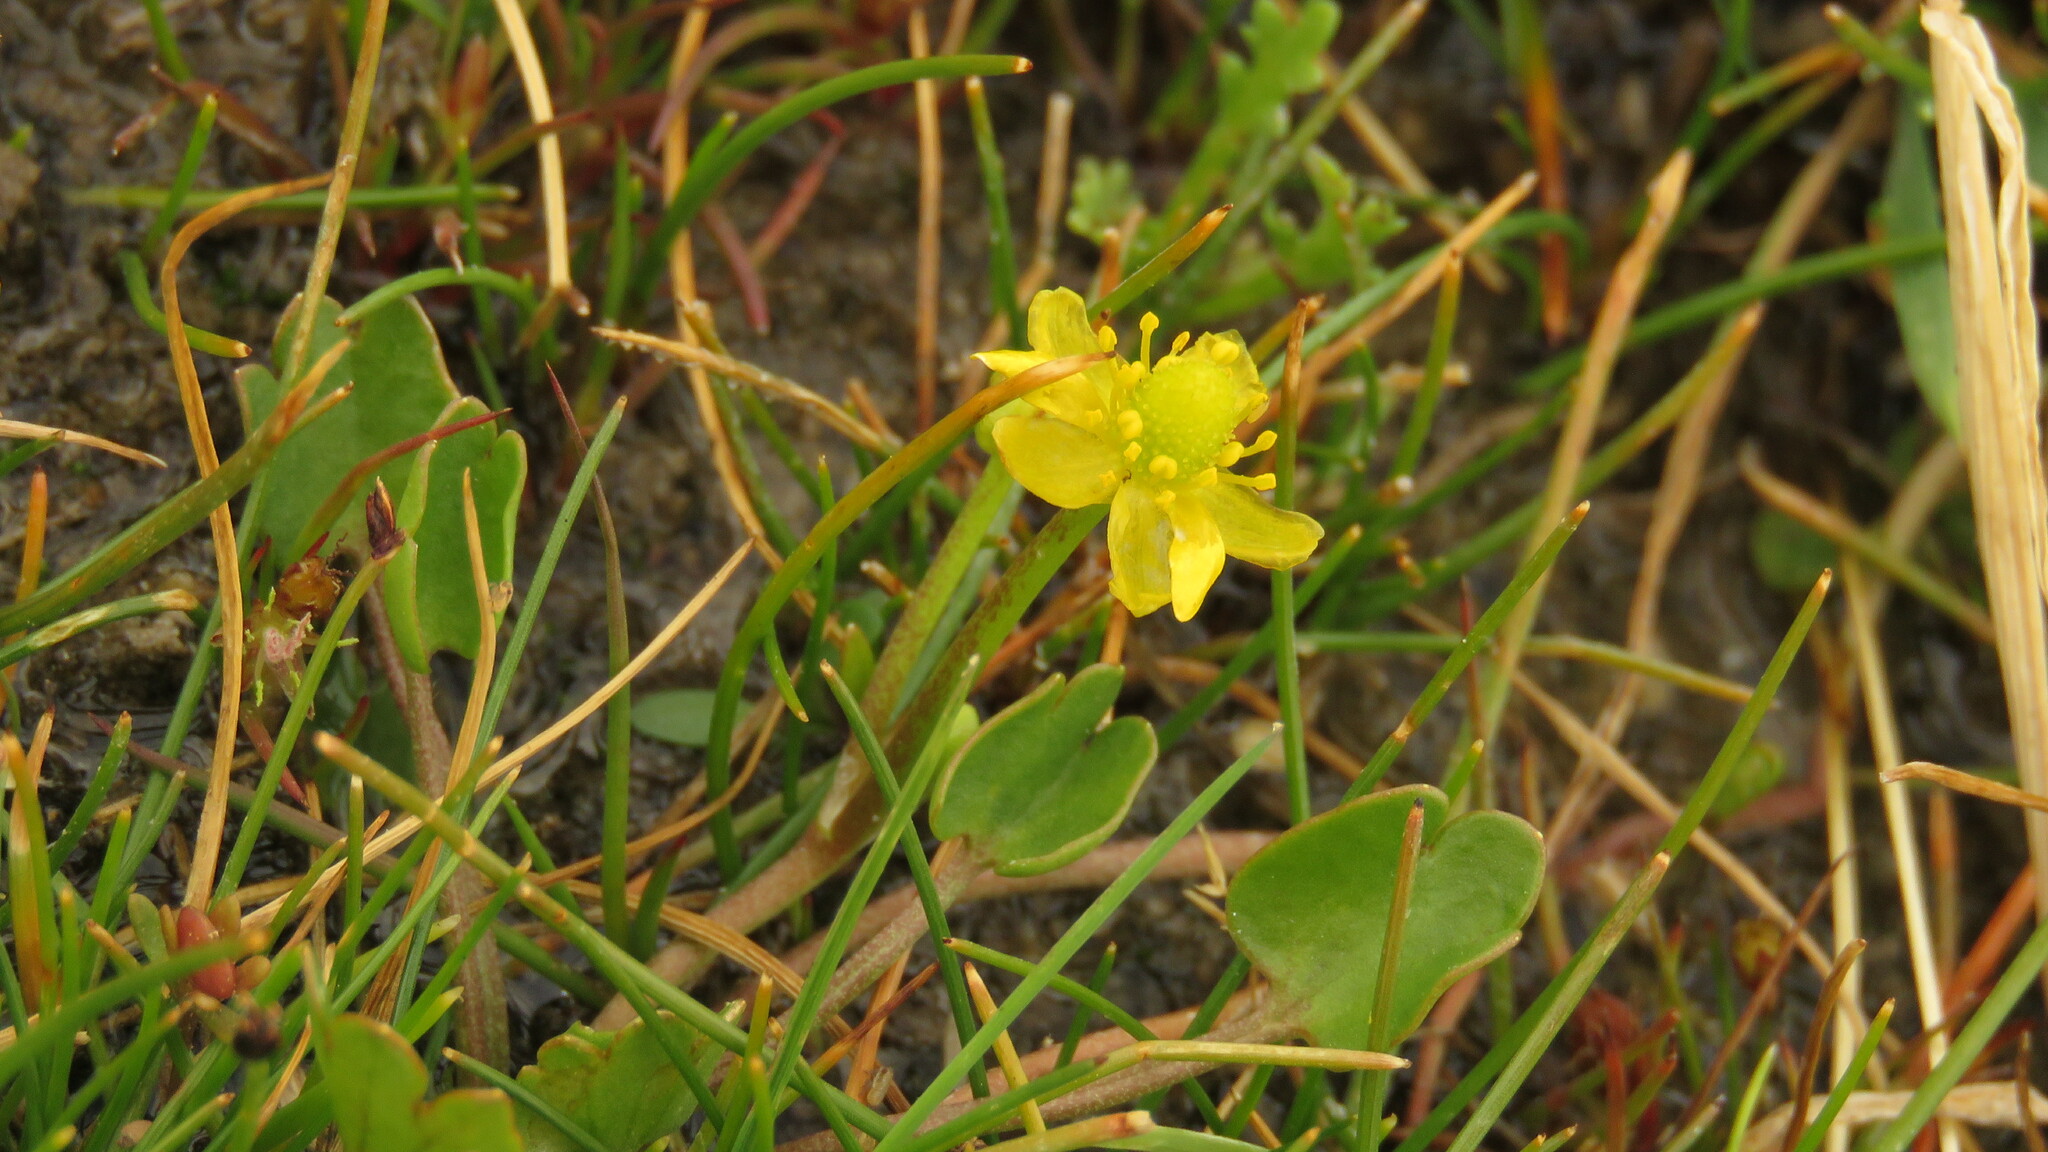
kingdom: Plantae
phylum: Tracheophyta
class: Magnoliopsida
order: Ranunculales
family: Ranunculaceae
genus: Halerpestes
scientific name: Halerpestes uniflora
